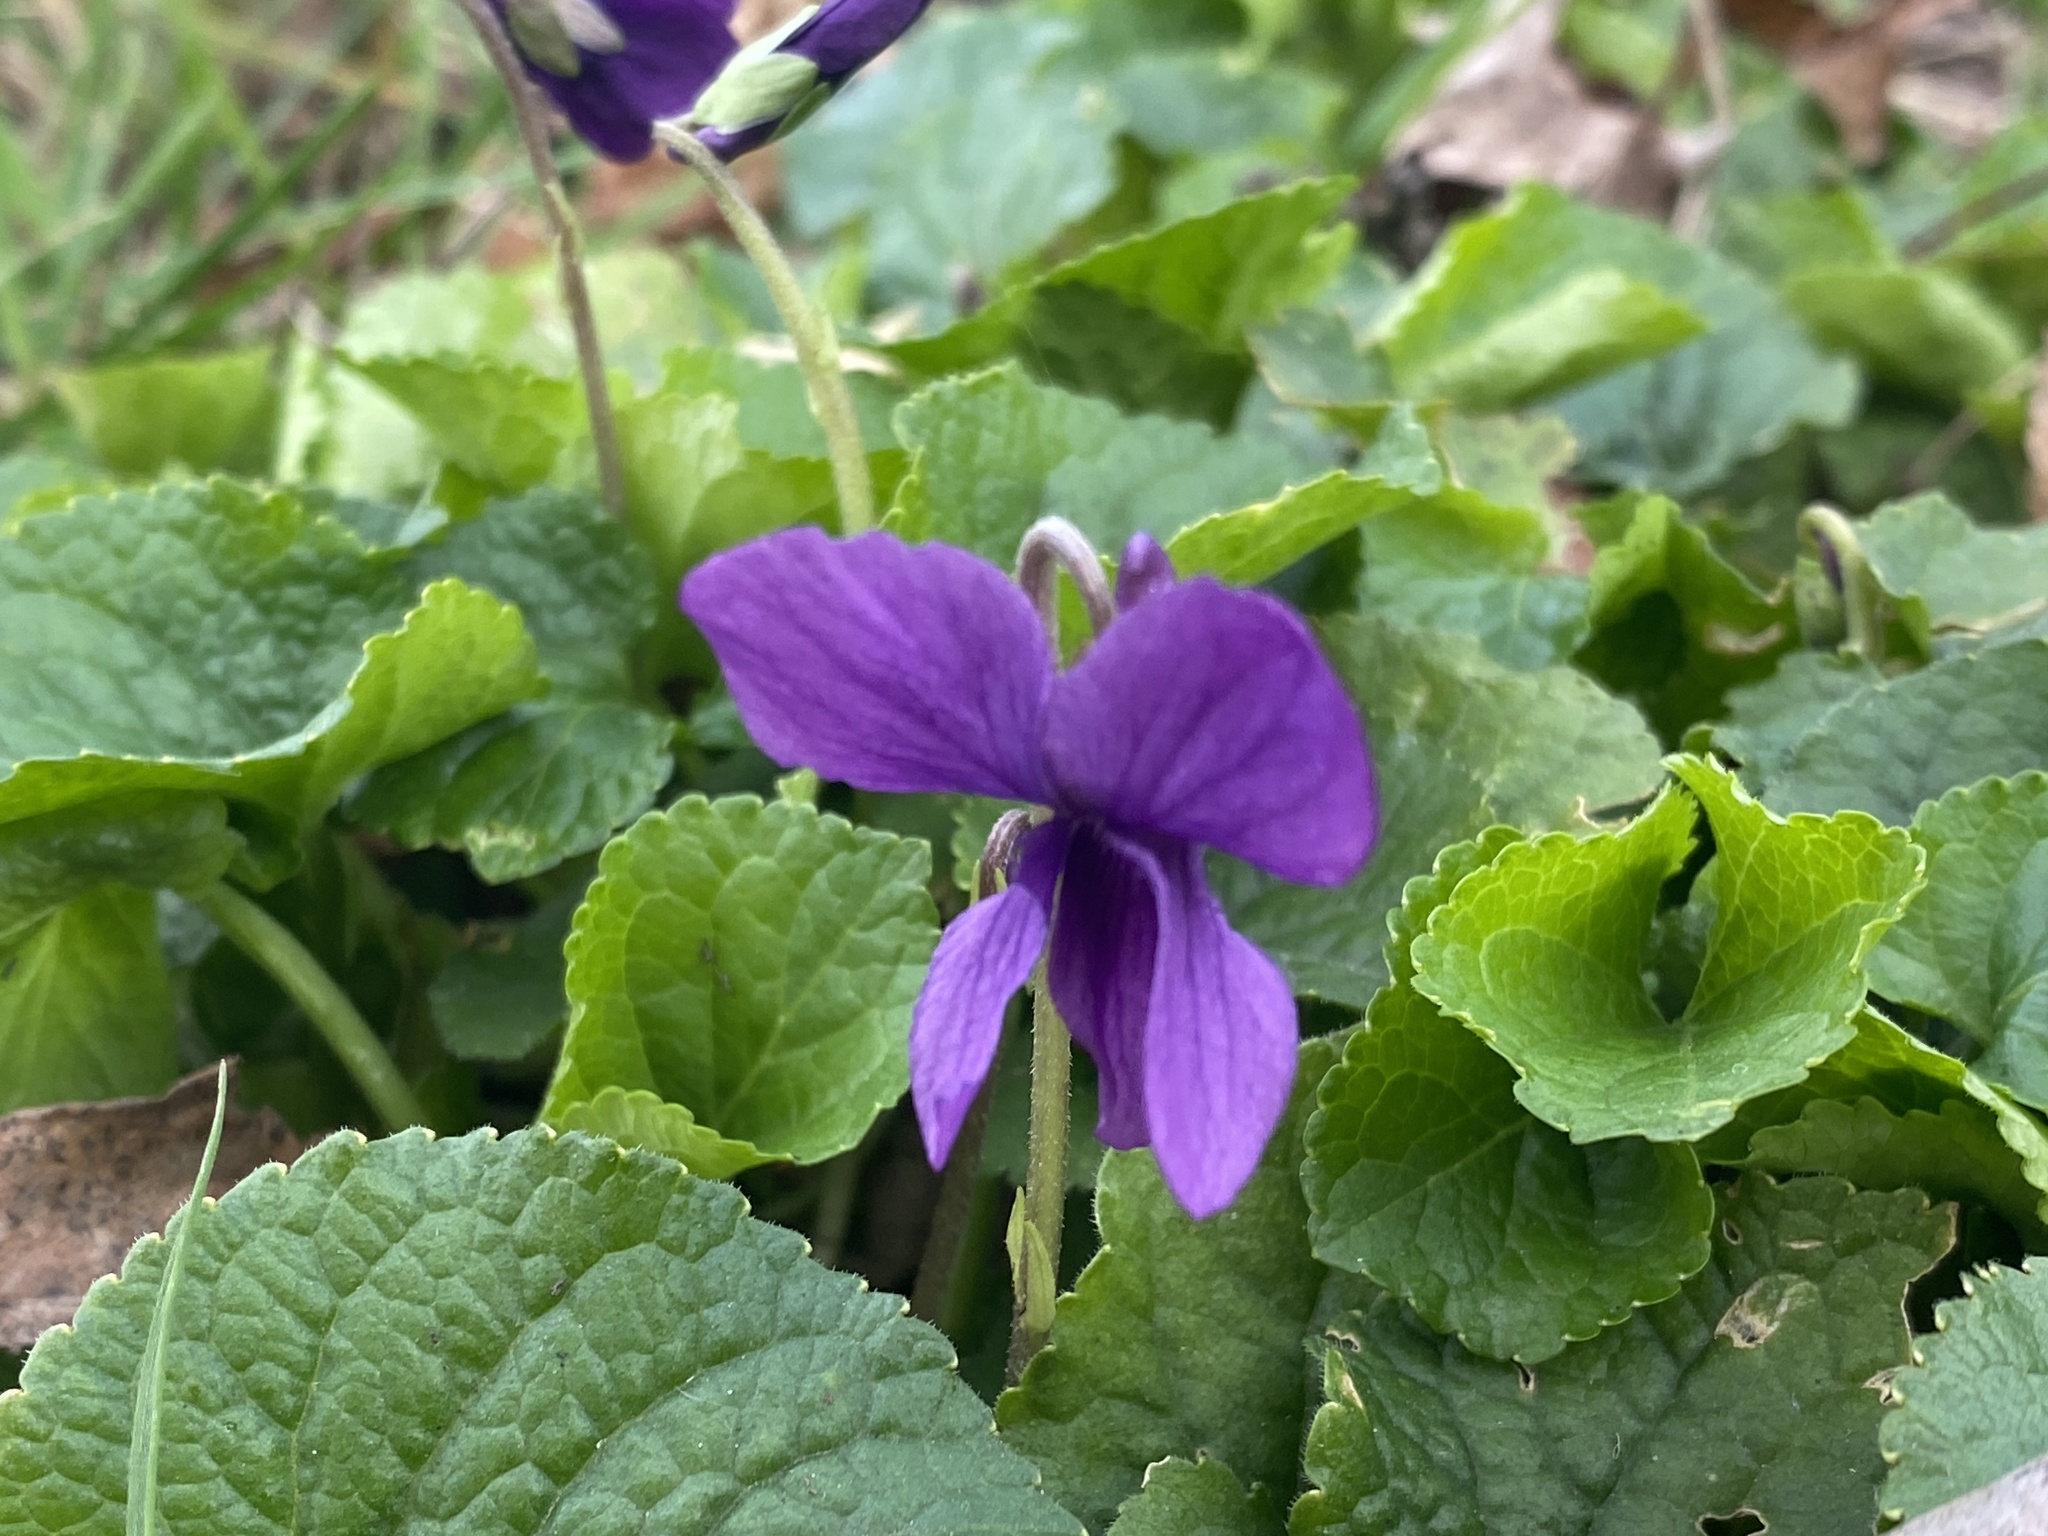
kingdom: Plantae
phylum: Tracheophyta
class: Magnoliopsida
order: Malpighiales
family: Violaceae
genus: Viola
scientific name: Viola odorata
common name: Sweet violet
